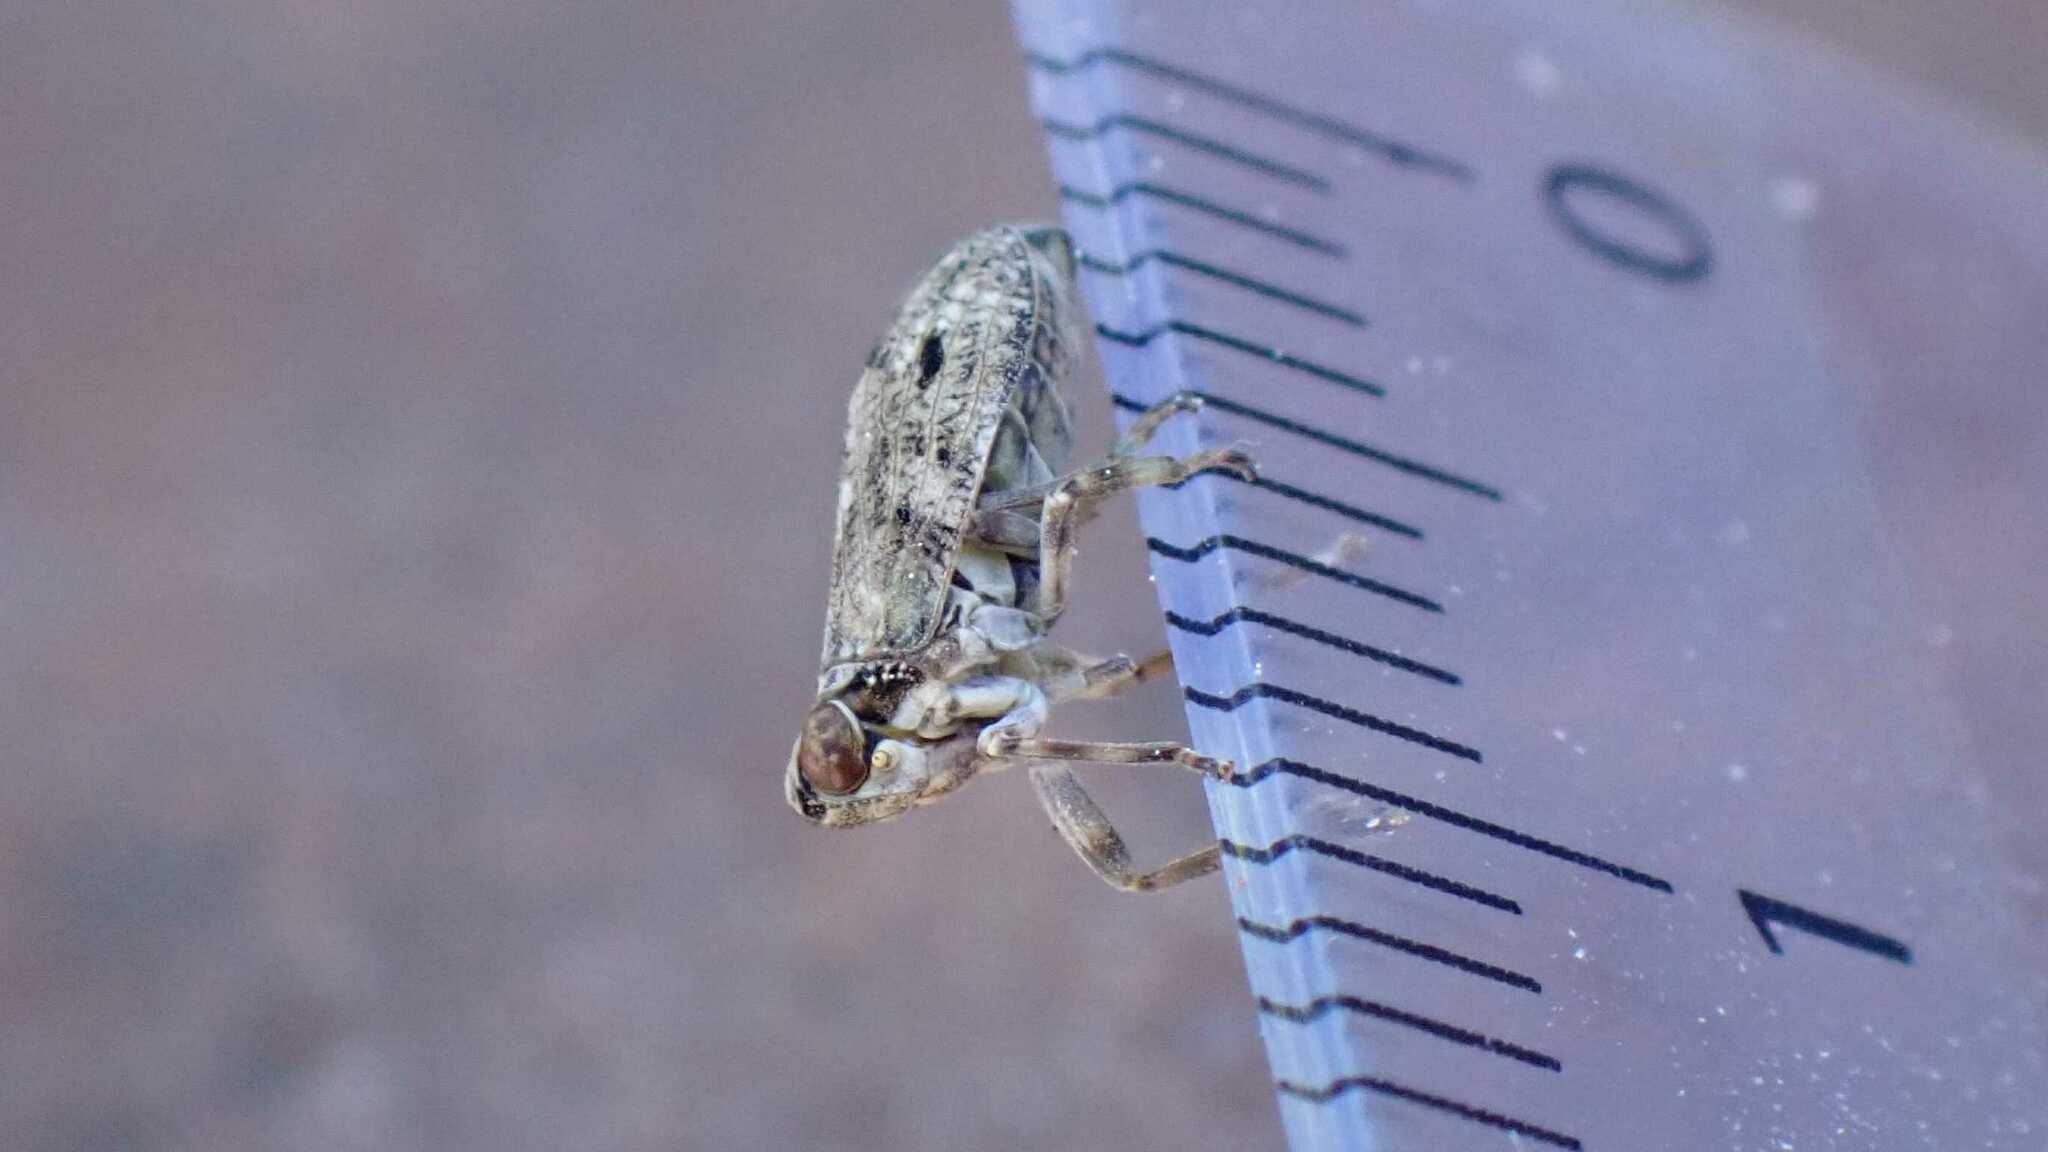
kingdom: Animalia
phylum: Arthropoda
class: Insecta
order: Hemiptera
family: Issidae
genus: Issus
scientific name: Issus coleoptratus
